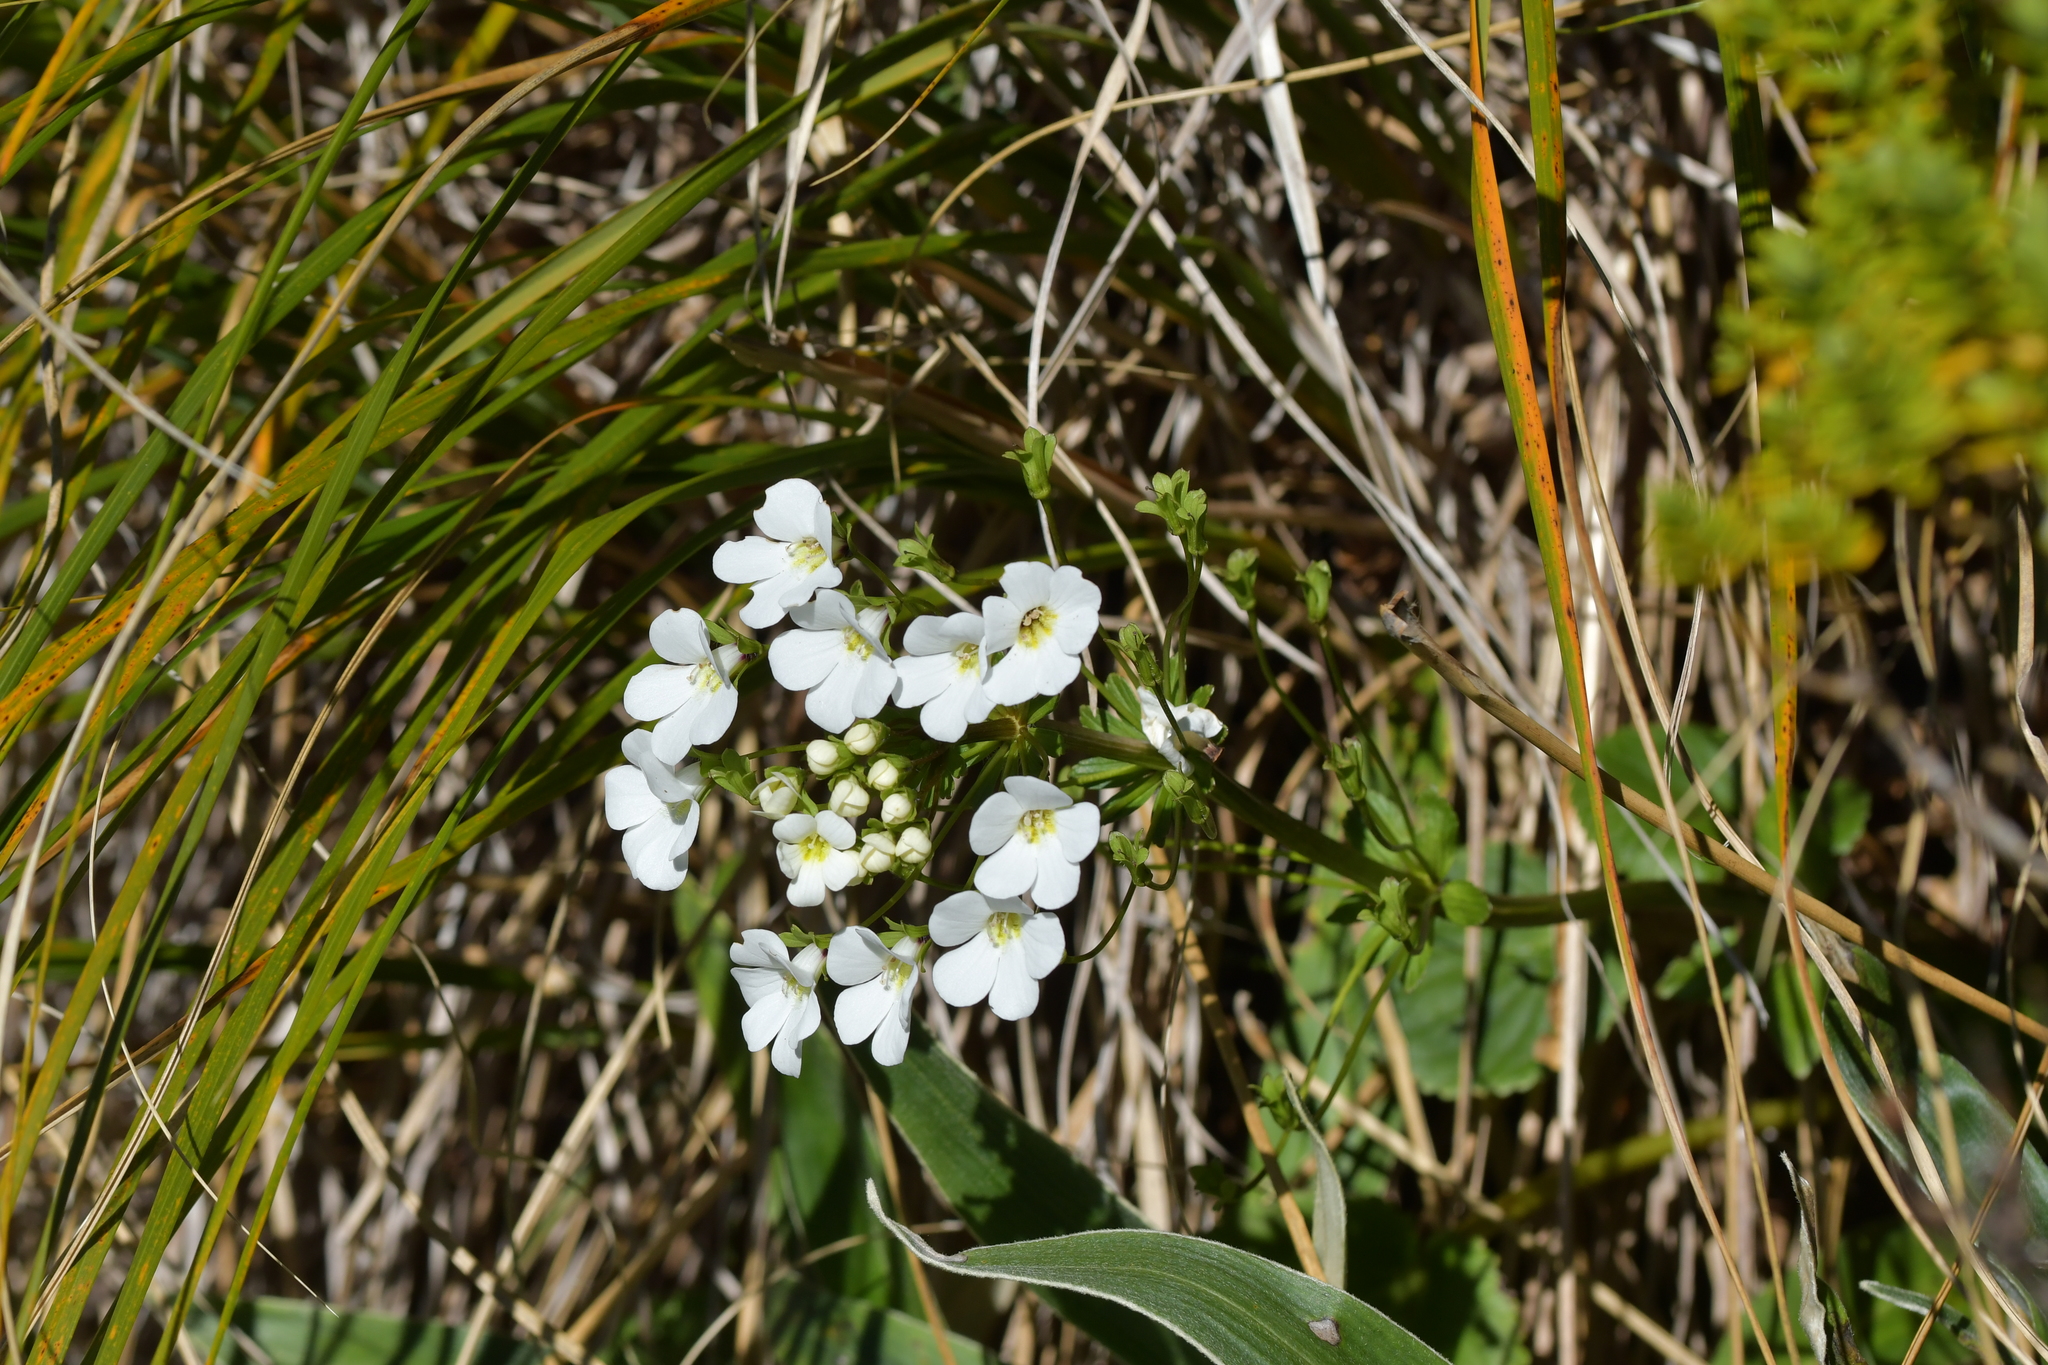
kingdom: Plantae
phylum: Tracheophyta
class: Magnoliopsida
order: Lamiales
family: Plantaginaceae
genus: Ourisia
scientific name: Ourisia macrocarpa
